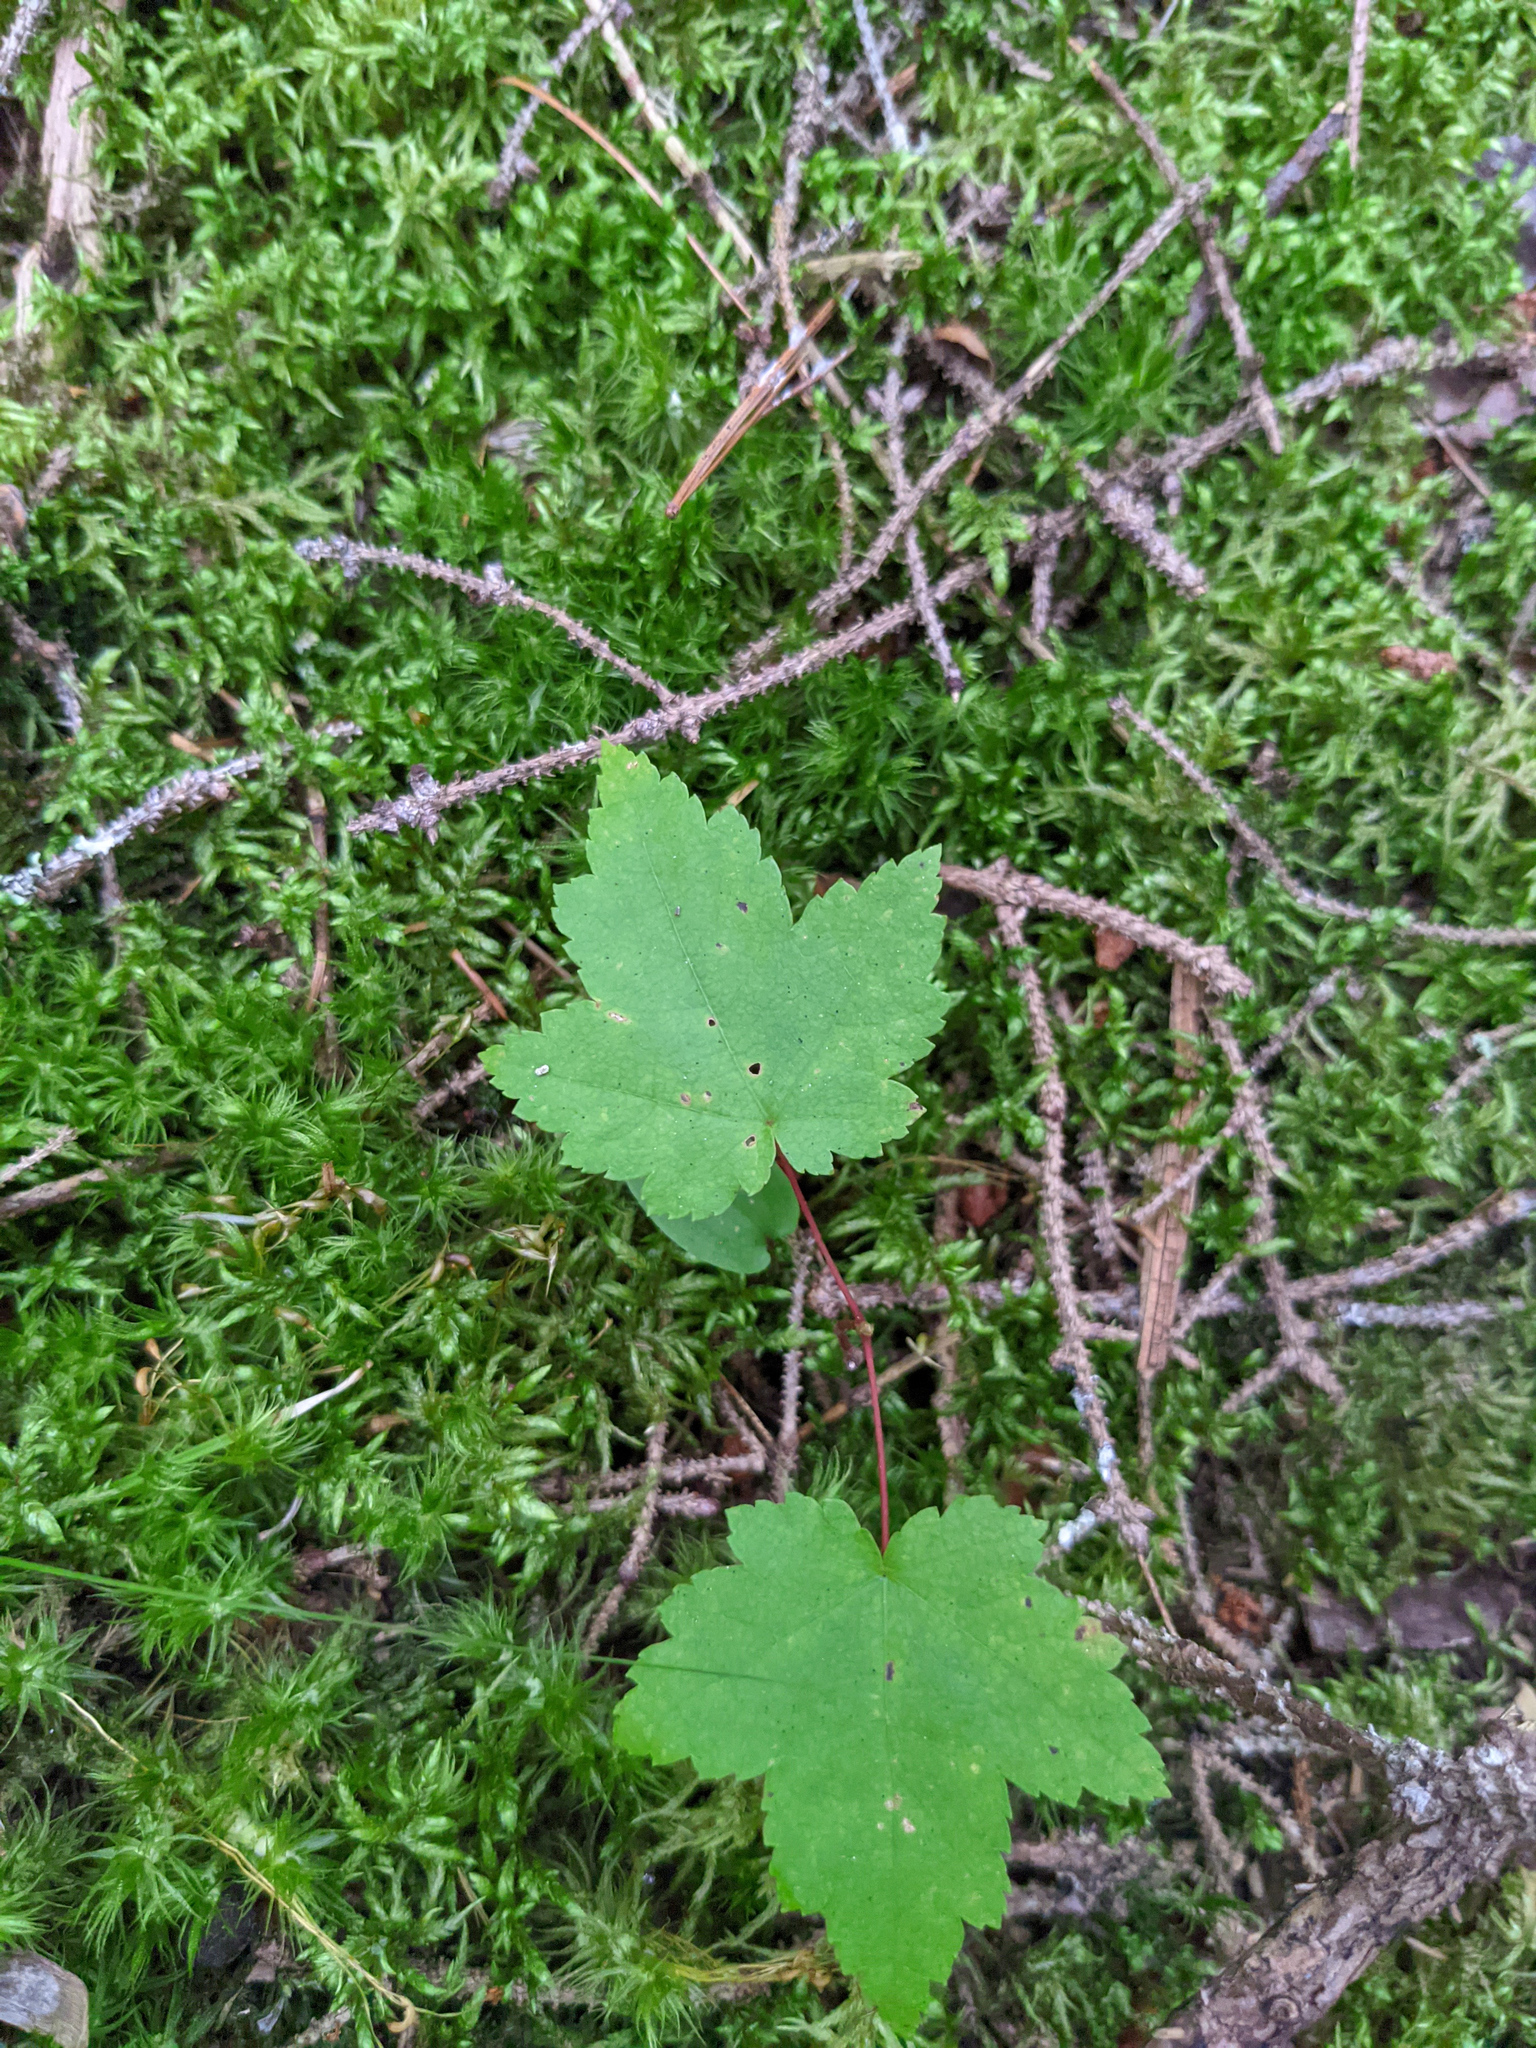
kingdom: Plantae
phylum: Tracheophyta
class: Magnoliopsida
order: Sapindales
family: Sapindaceae
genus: Acer
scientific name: Acer rubrum
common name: Red maple
